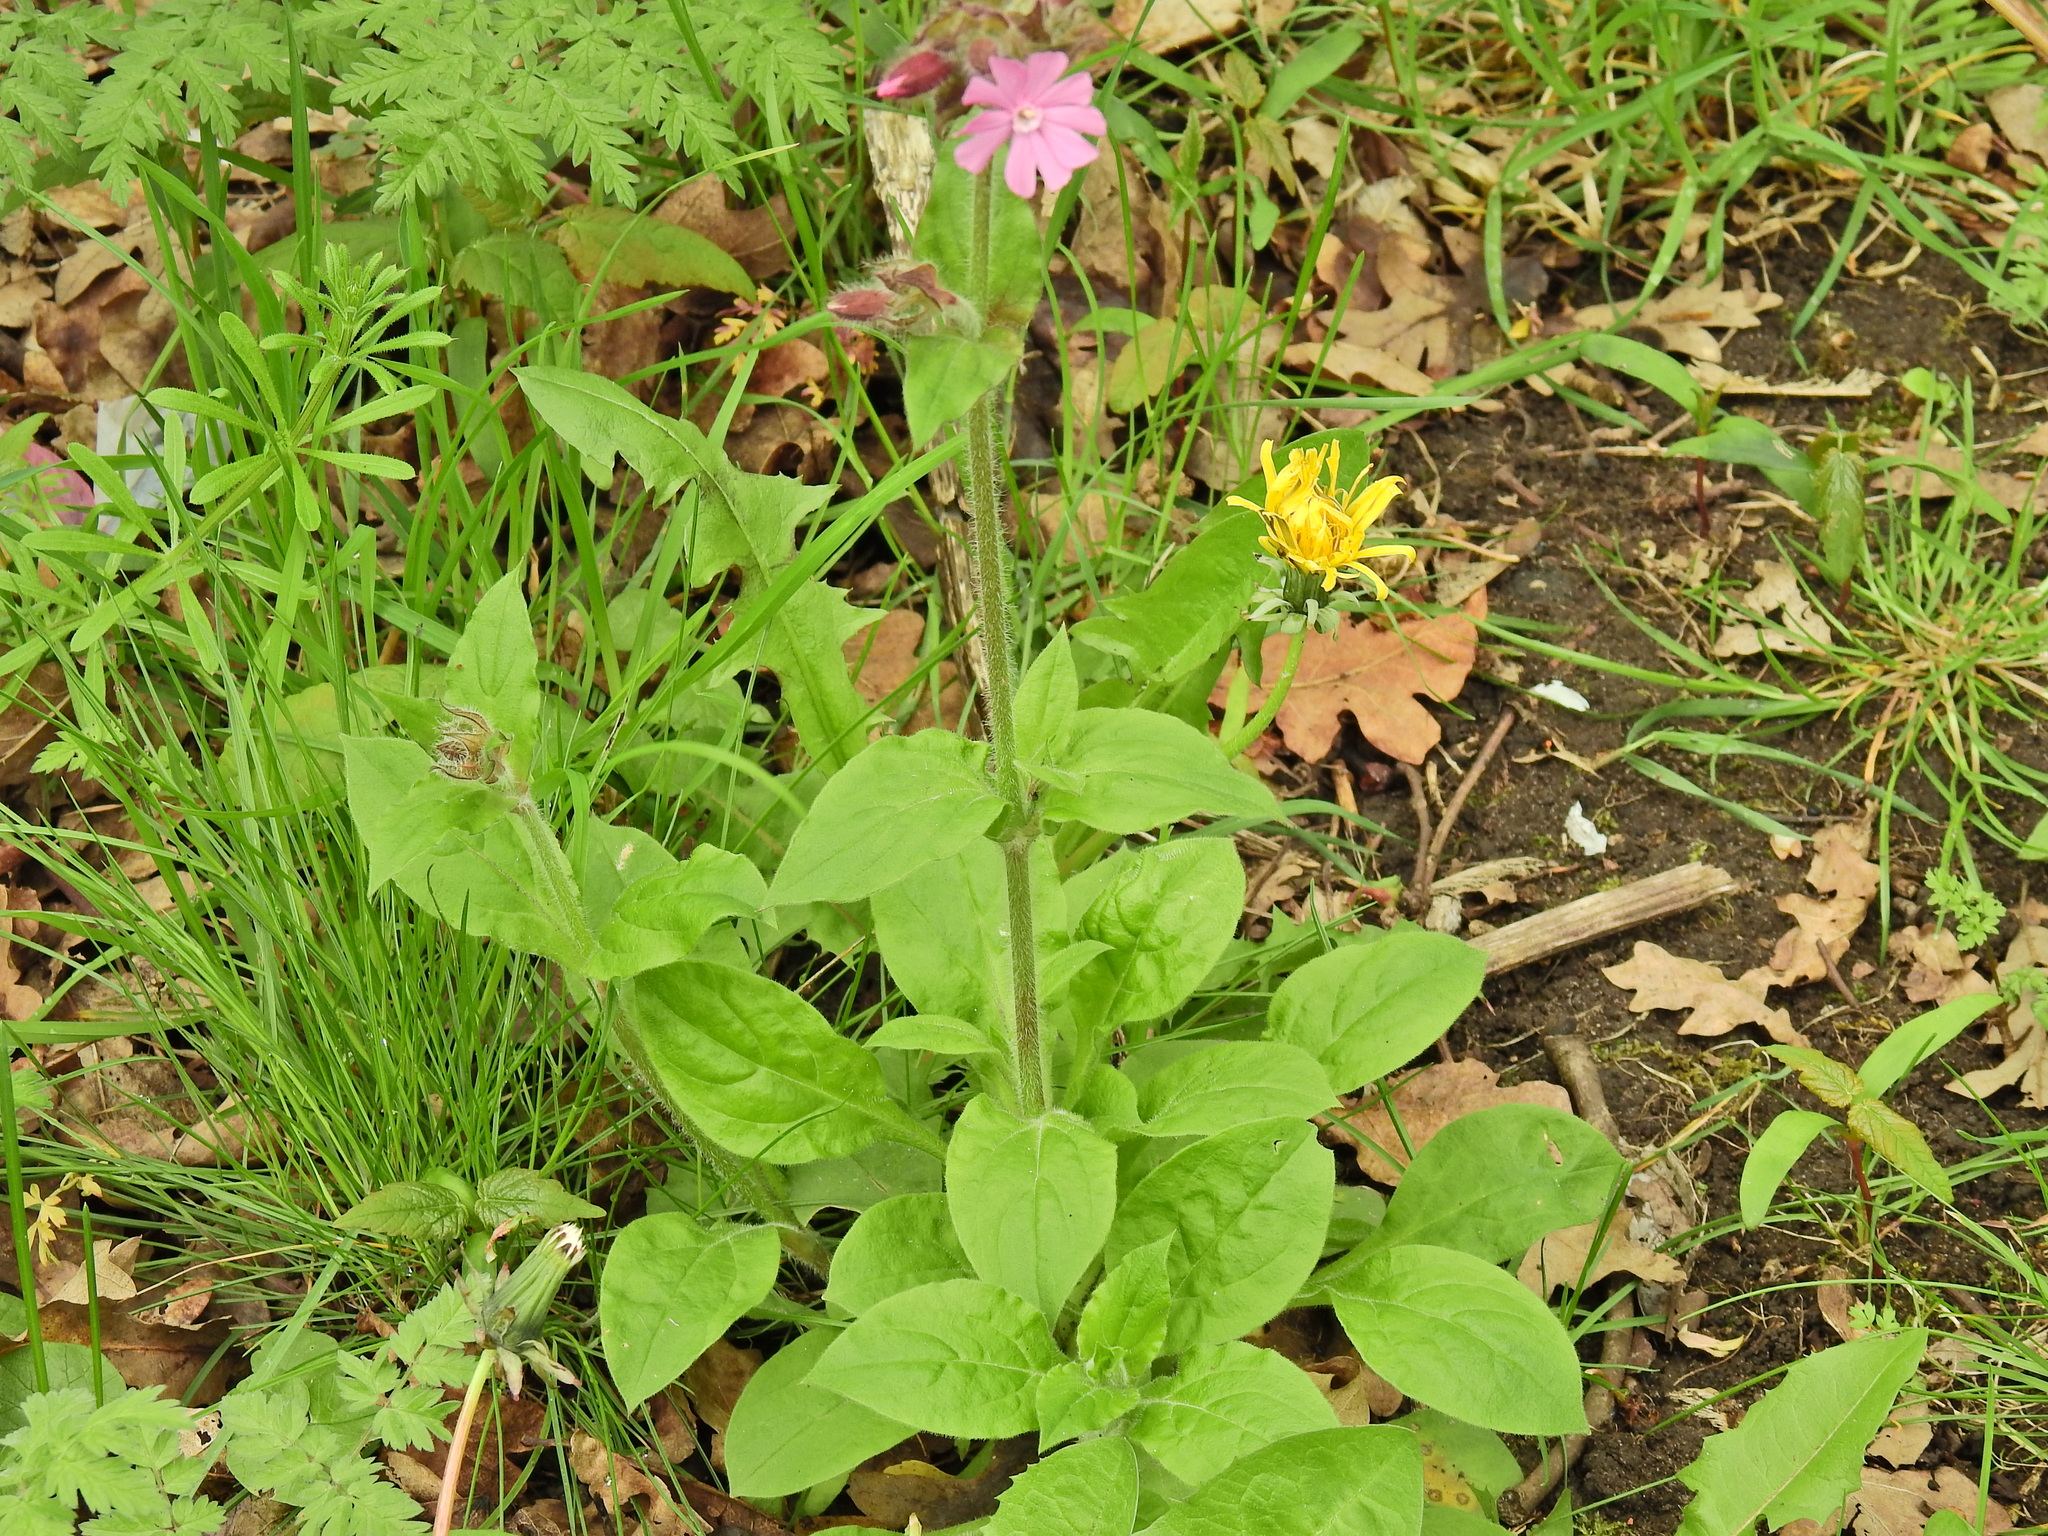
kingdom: Plantae
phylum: Tracheophyta
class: Magnoliopsida
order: Caryophyllales
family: Caryophyllaceae
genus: Silene
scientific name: Silene dioica
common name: Red campion
